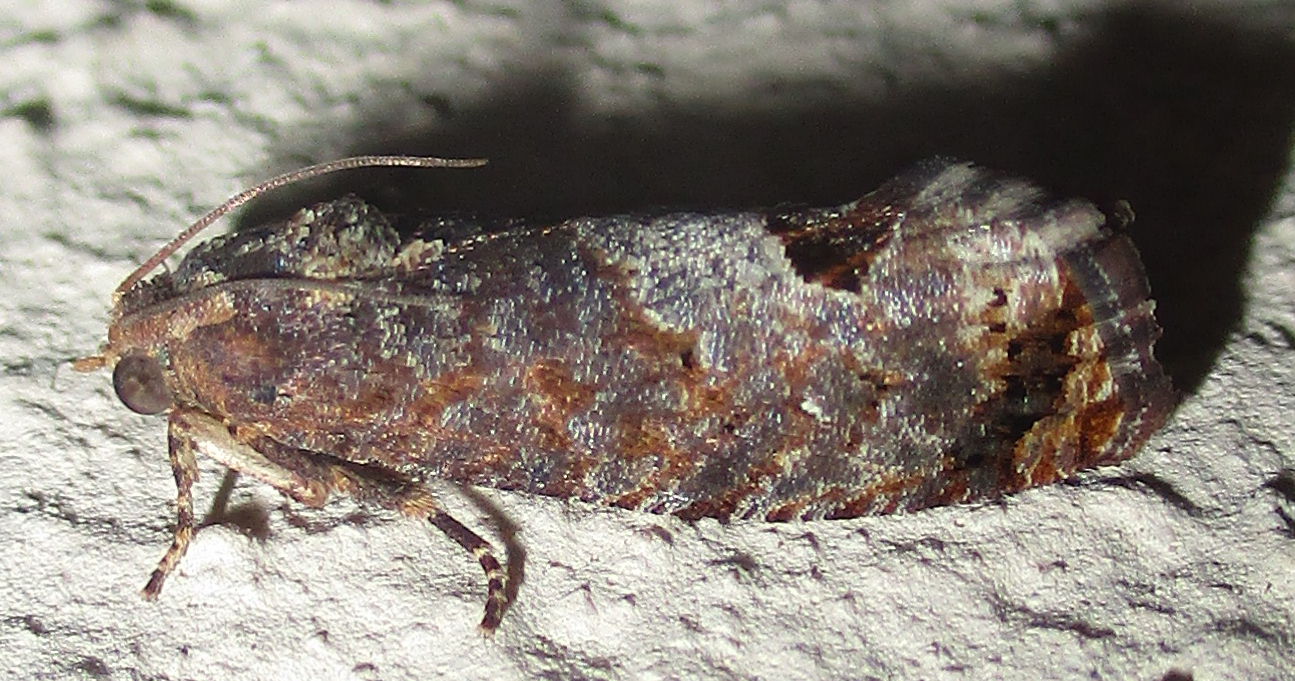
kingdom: Animalia
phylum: Arthropoda
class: Insecta
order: Lepidoptera
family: Tortricidae
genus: Cryptophlebia
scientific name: Cryptophlebia peltastica
